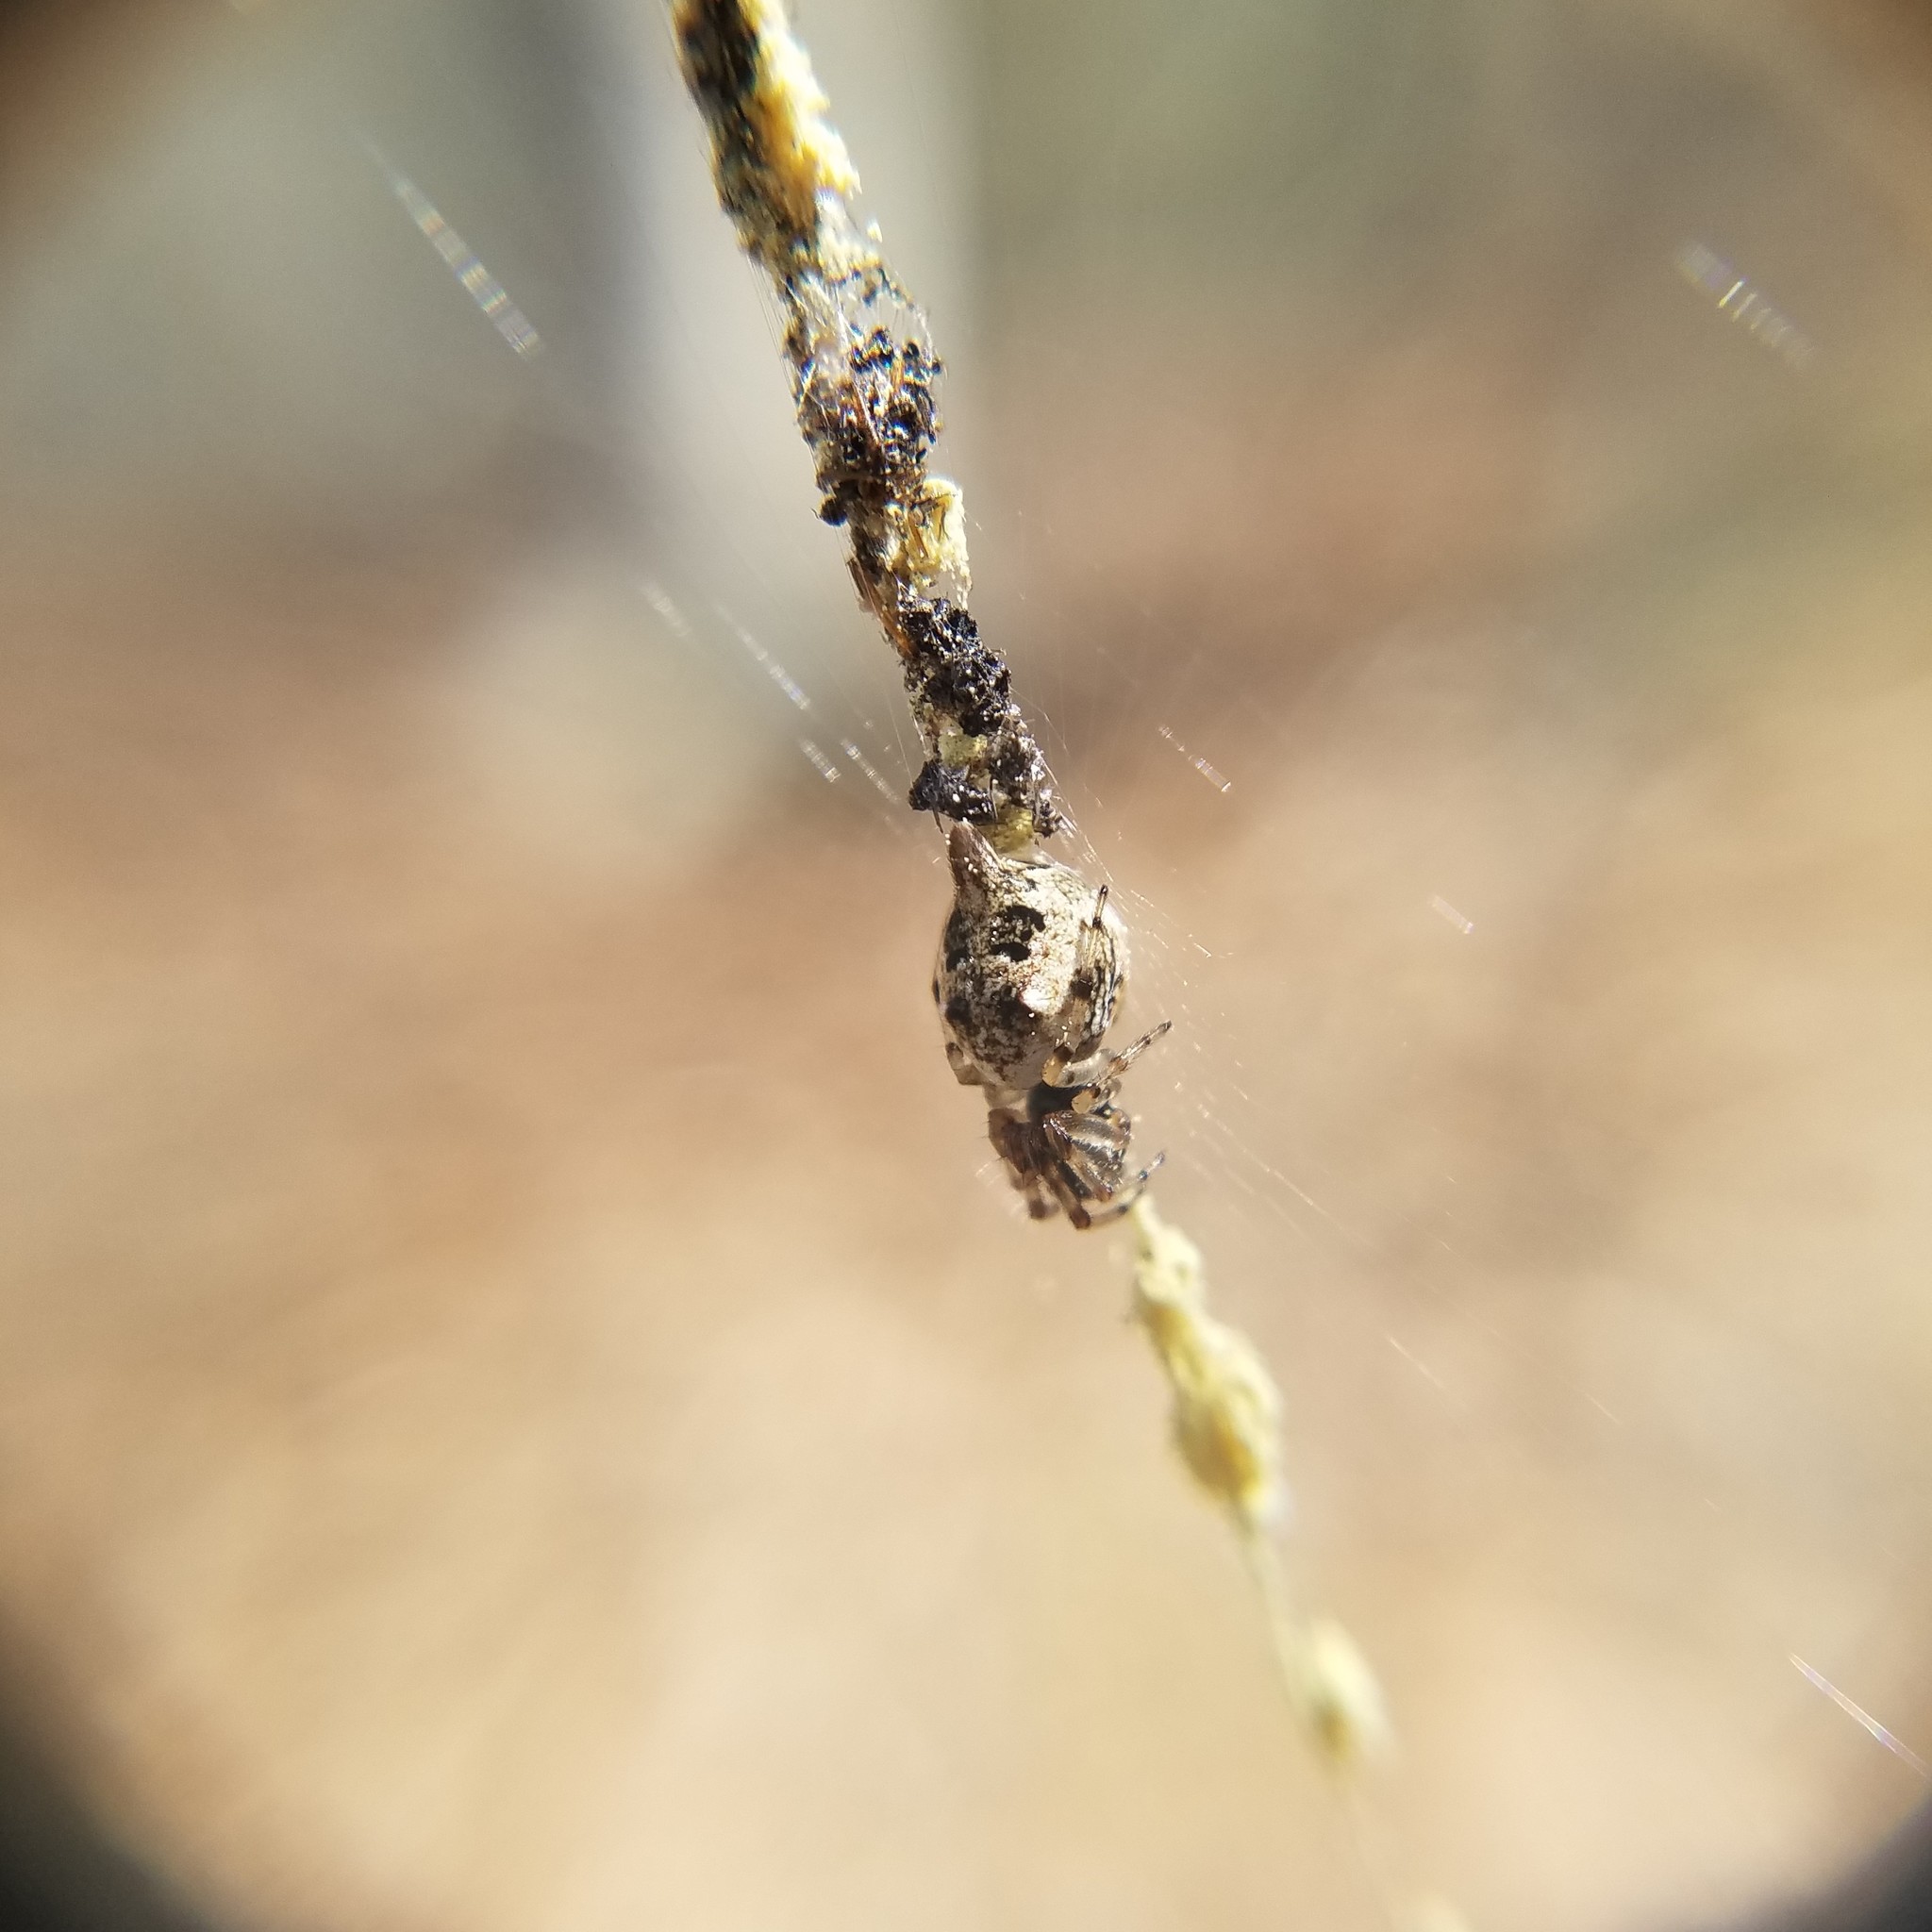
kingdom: Animalia
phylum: Arthropoda
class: Arachnida
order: Araneae
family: Araneidae
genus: Cyclosa
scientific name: Cyclosa turbinata
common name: Orb weavers
